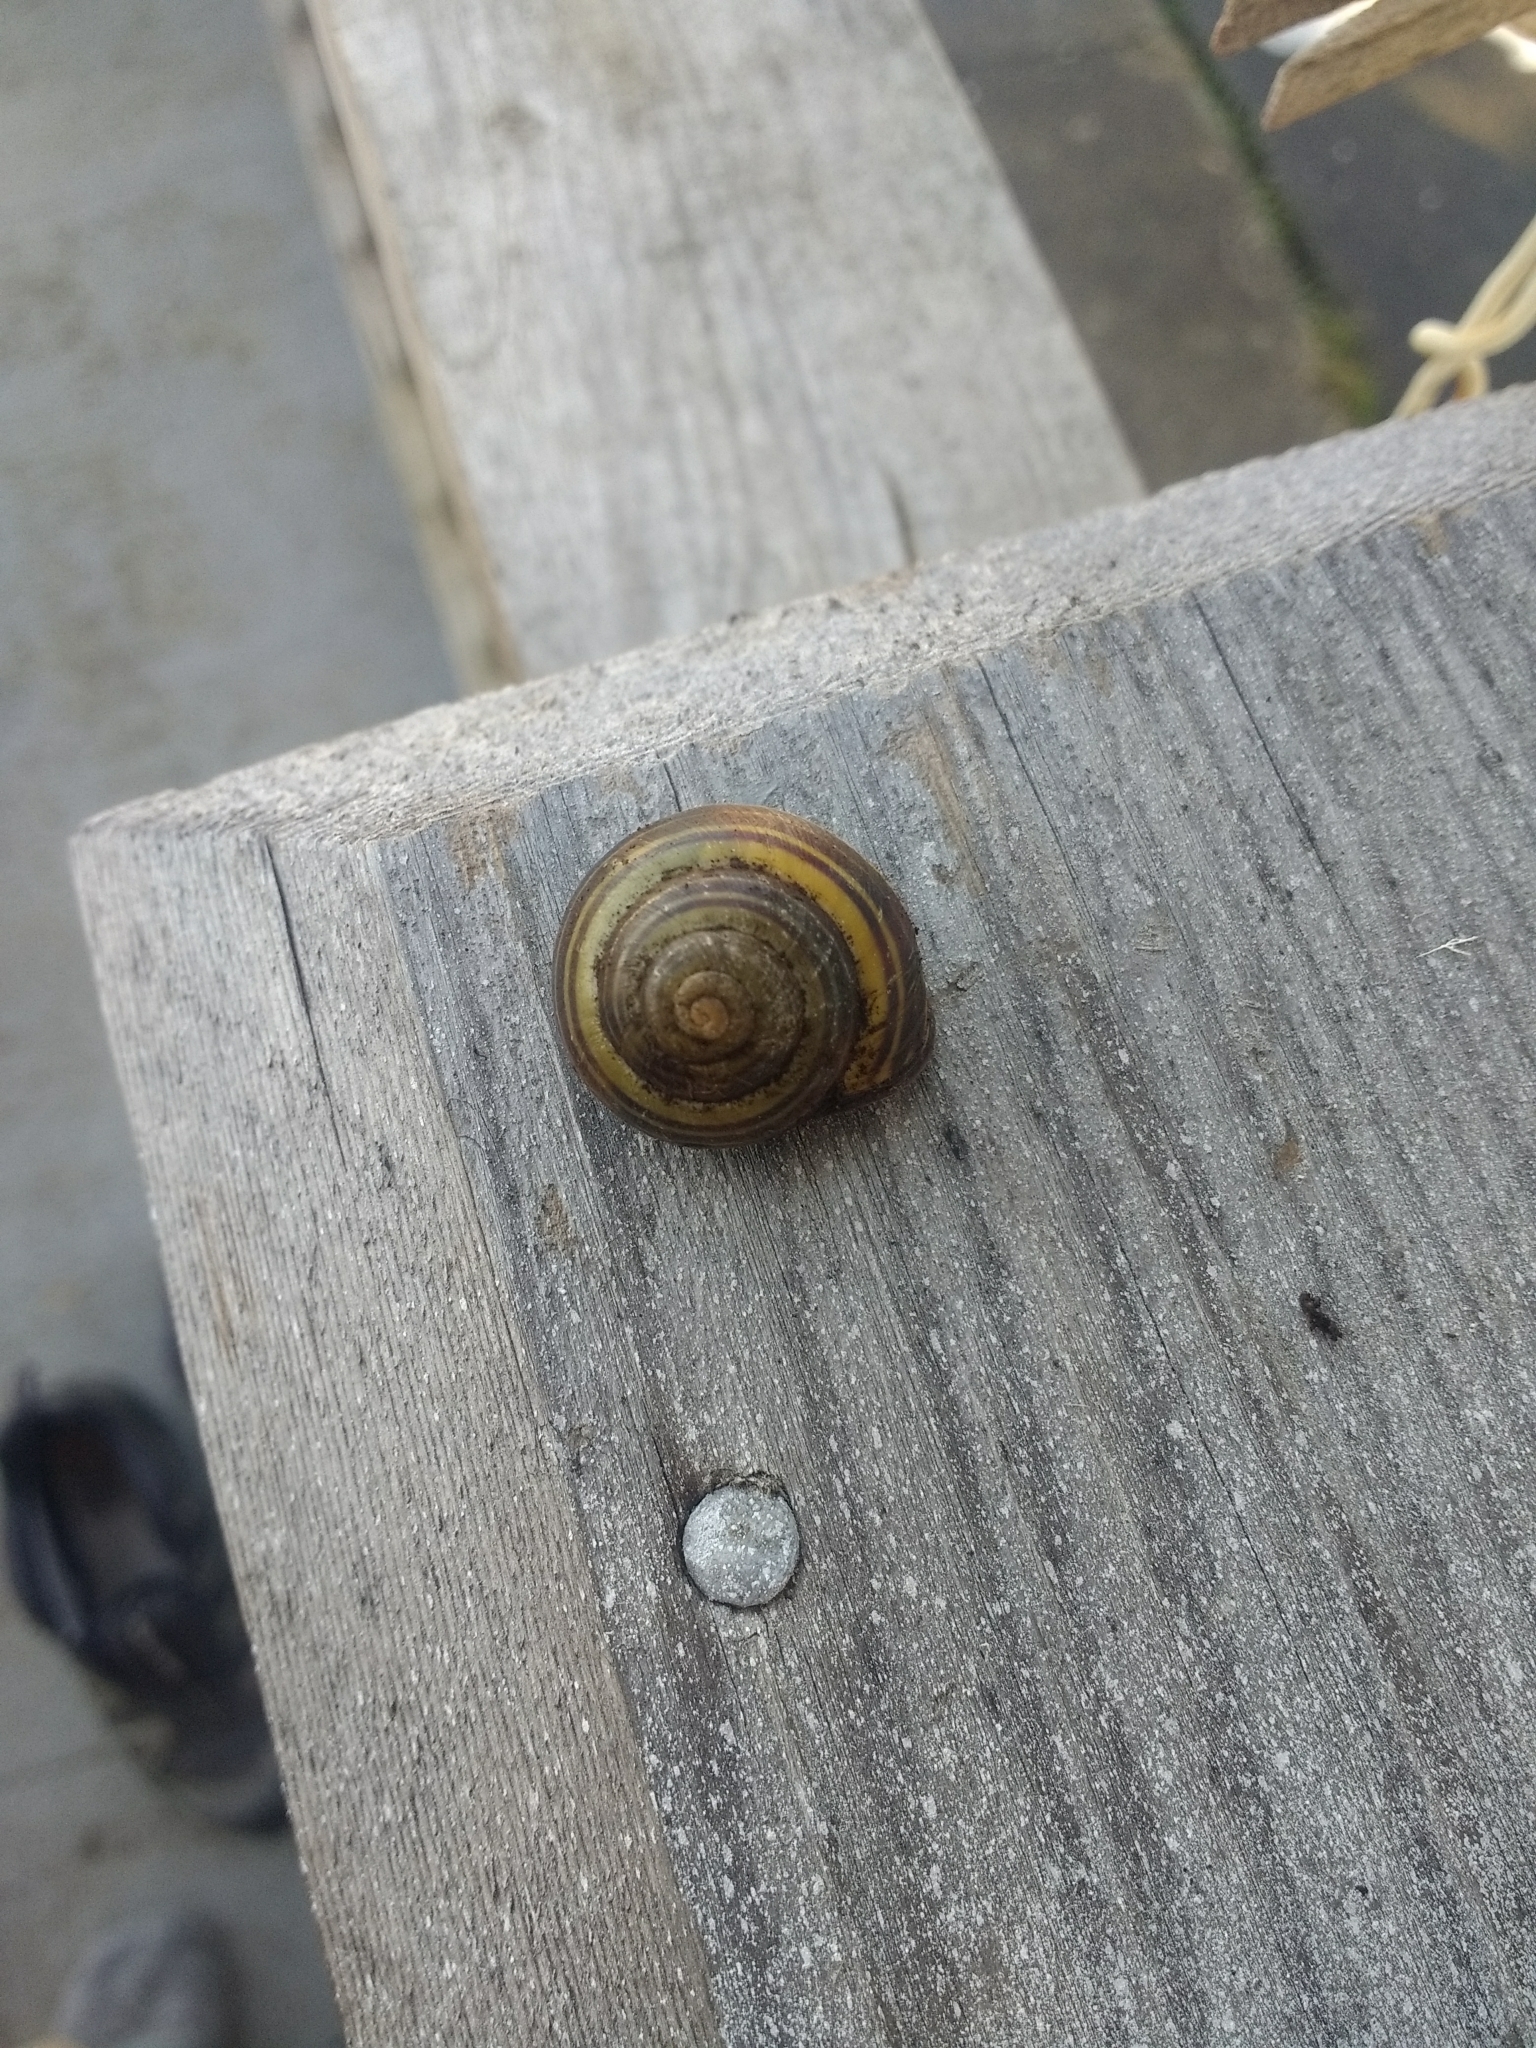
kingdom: Animalia
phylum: Mollusca
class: Gastropoda
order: Stylommatophora
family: Helicidae
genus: Cepaea
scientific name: Cepaea nemoralis
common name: Grovesnail
